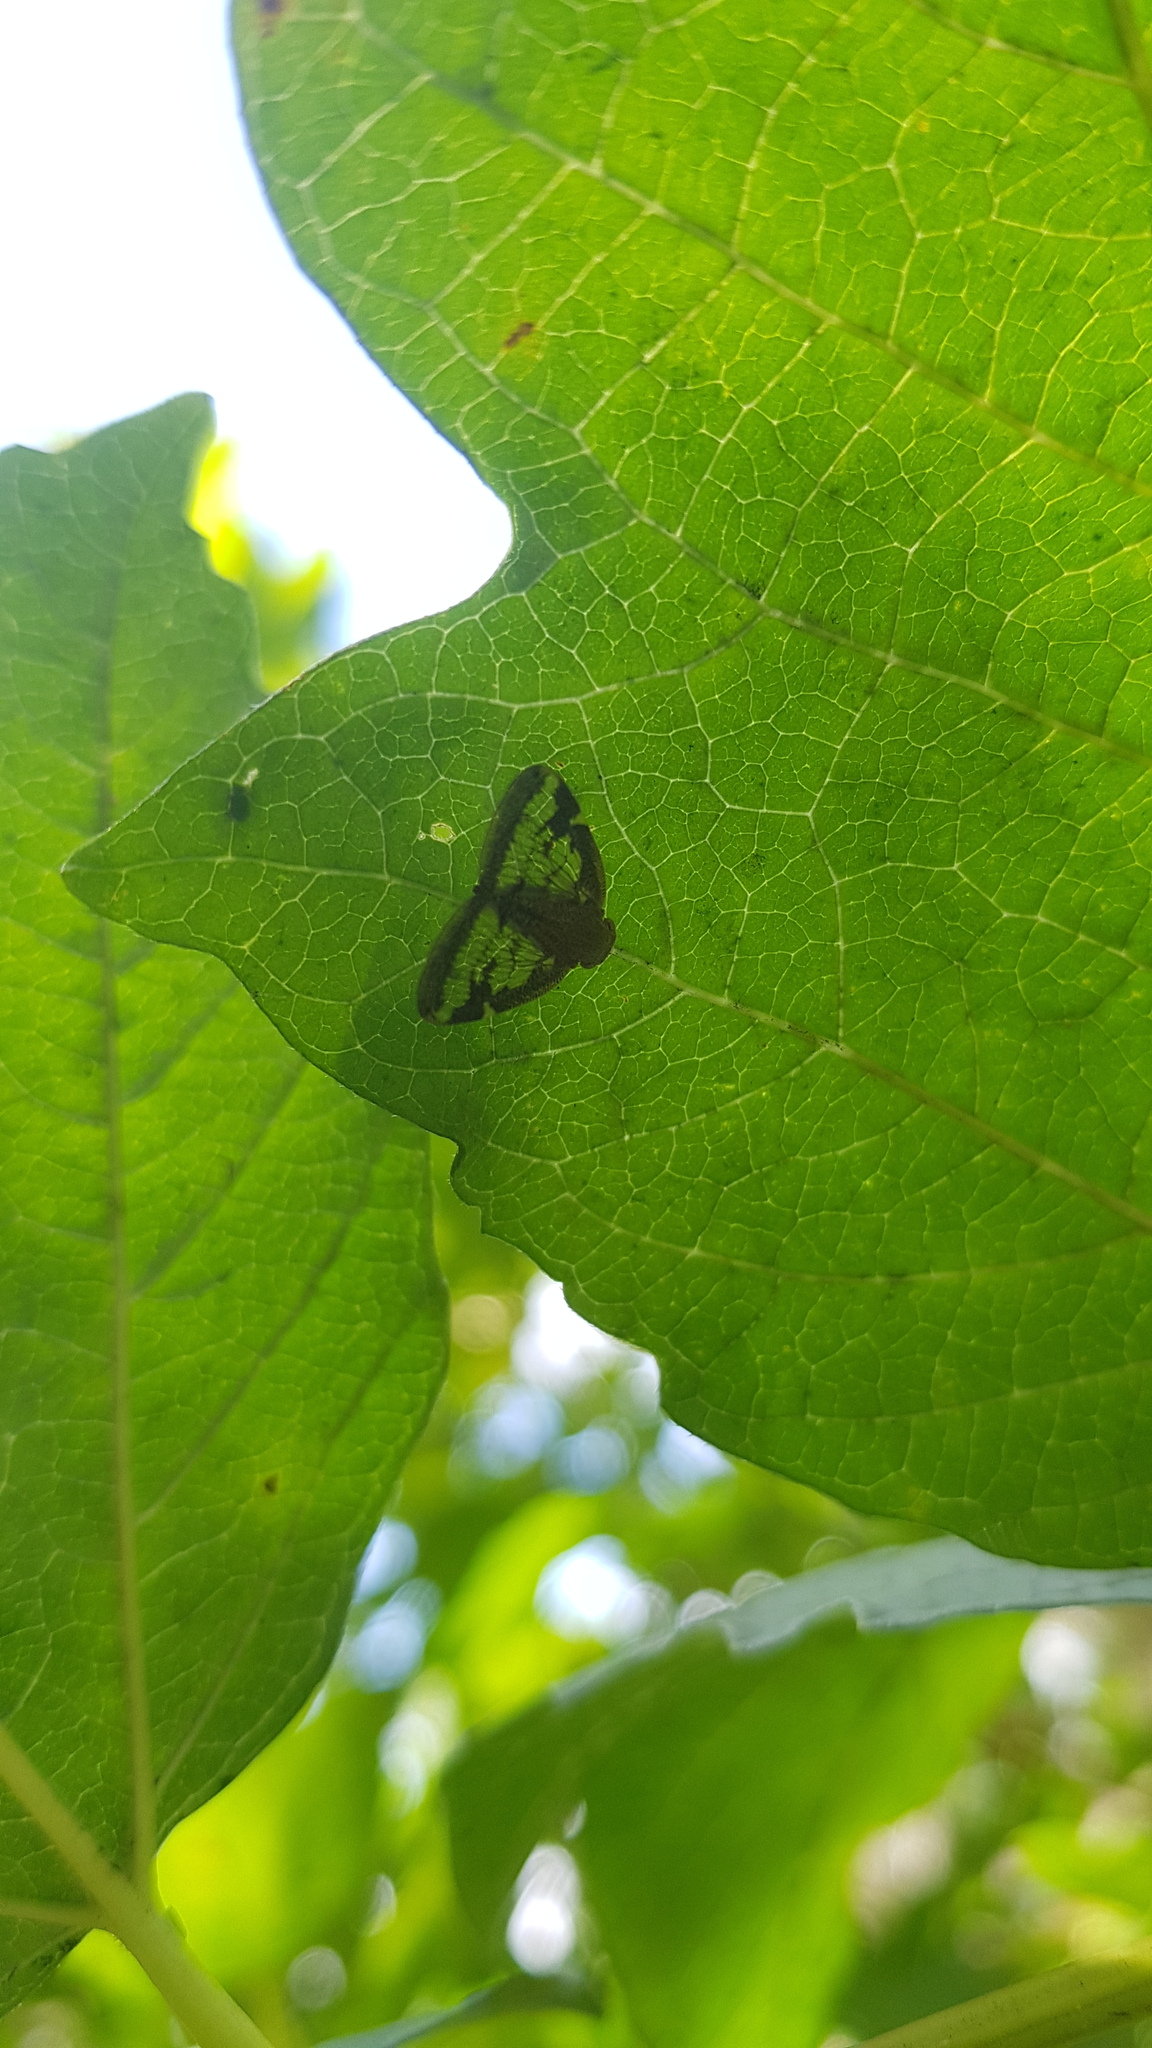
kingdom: Animalia
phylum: Arthropoda
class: Insecta
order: Hemiptera
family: Ricaniidae
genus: Scolypopa
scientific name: Scolypopa australis
